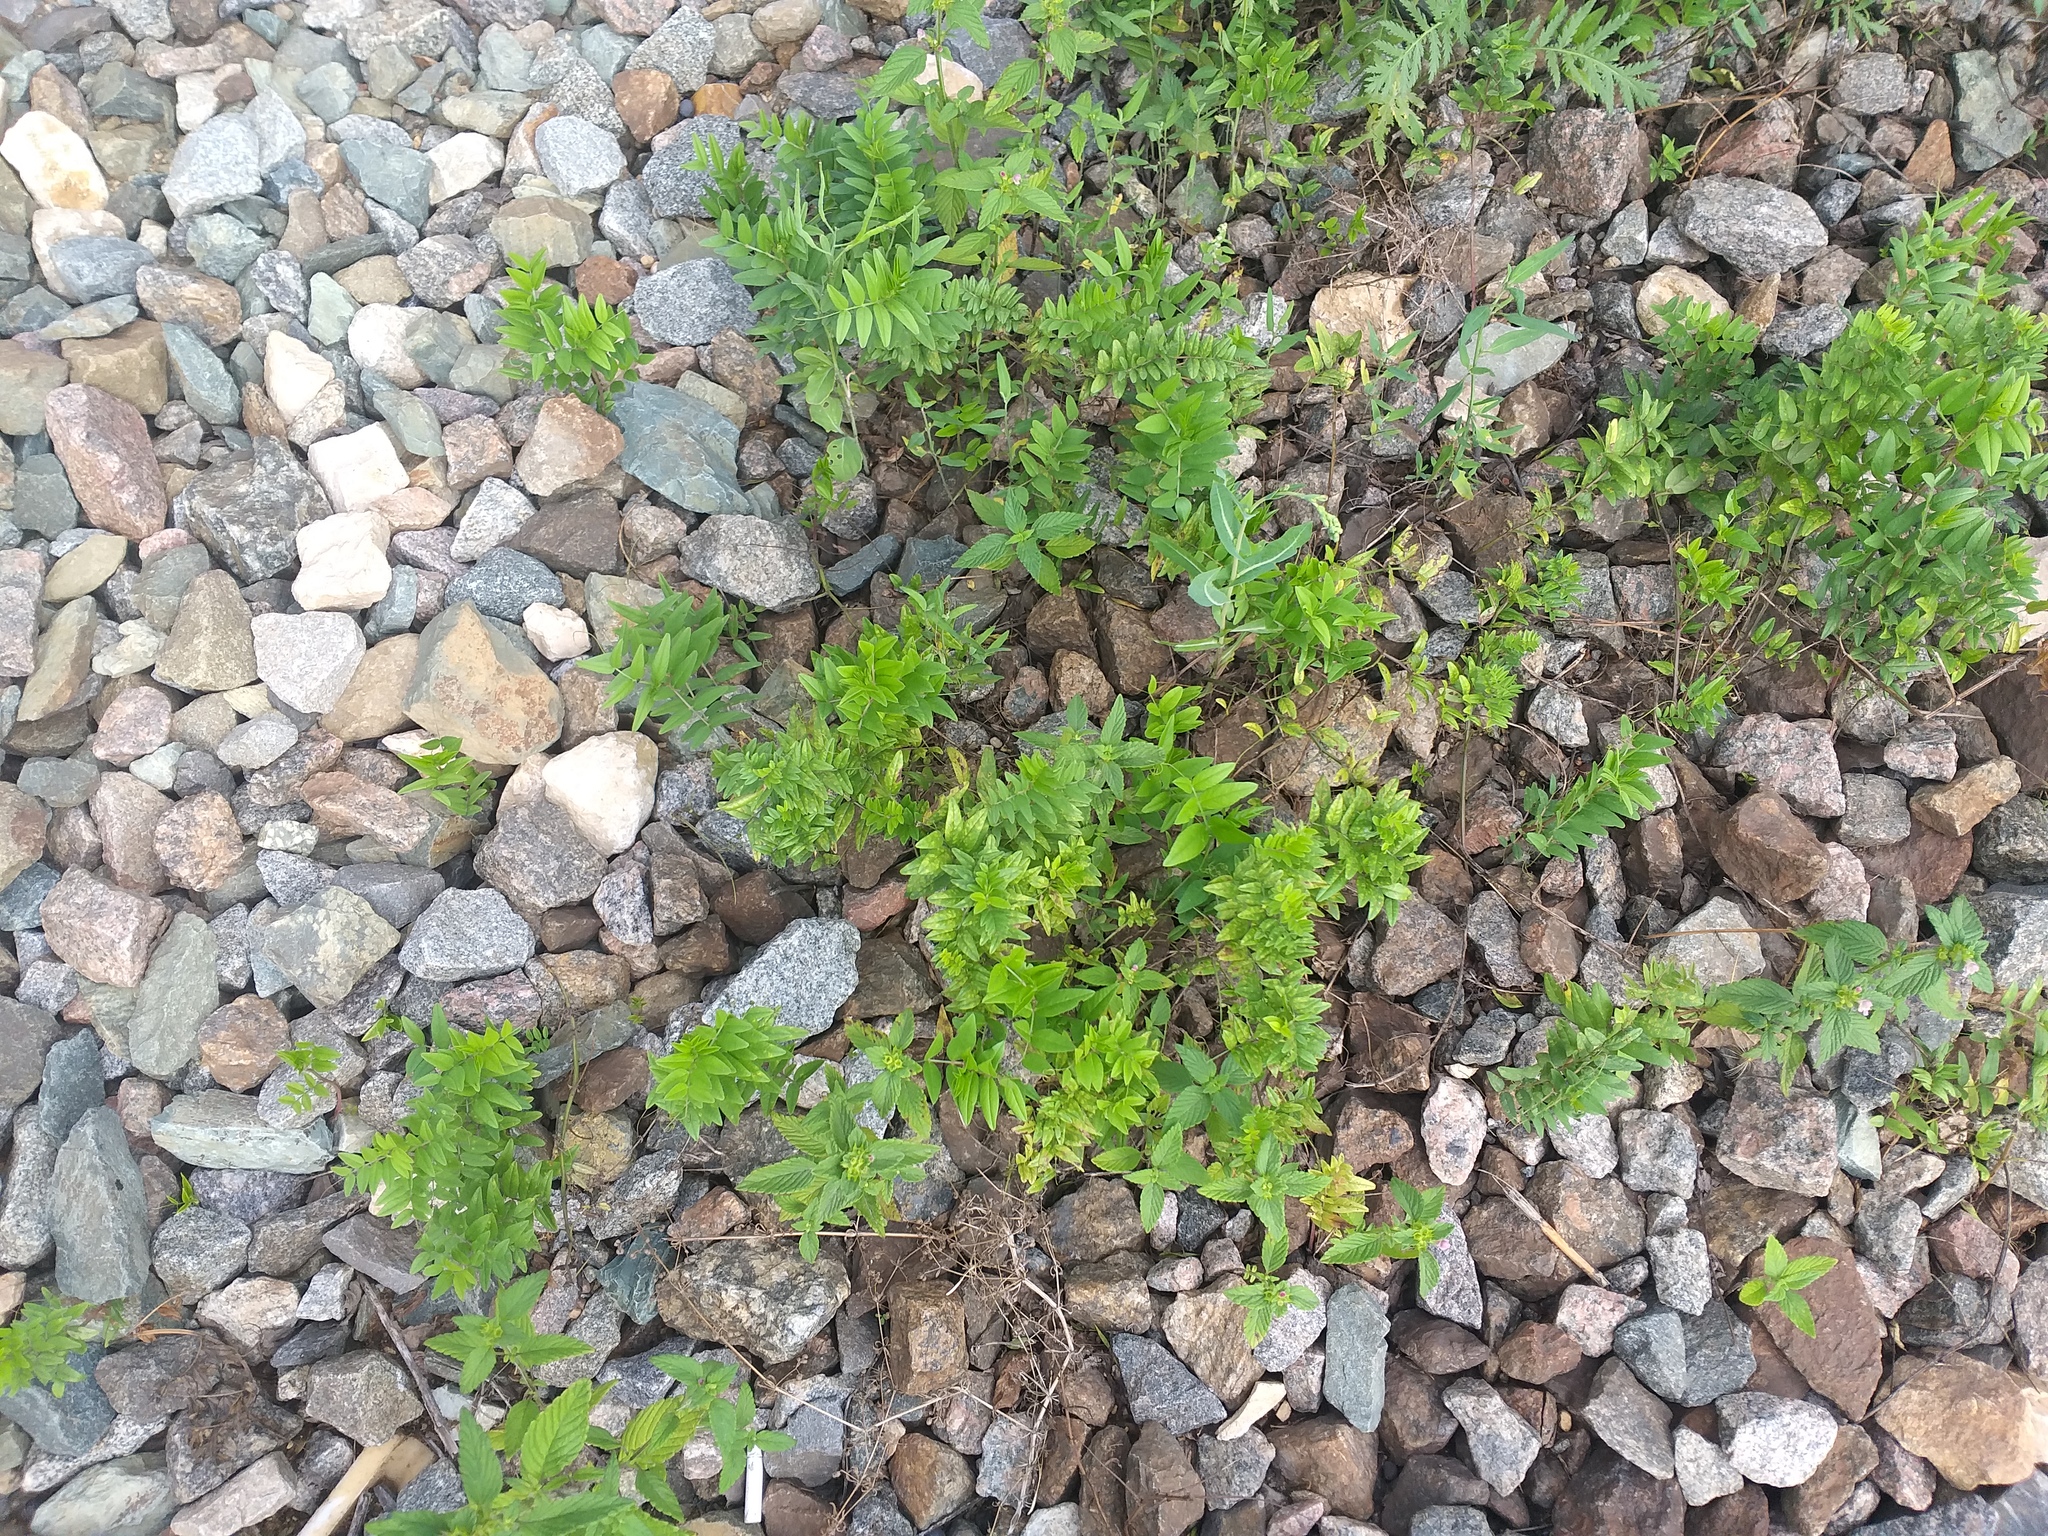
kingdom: Plantae
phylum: Tracheophyta
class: Magnoliopsida
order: Fabales
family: Fabaceae
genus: Vicia
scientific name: Vicia sepium
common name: Bush vetch
